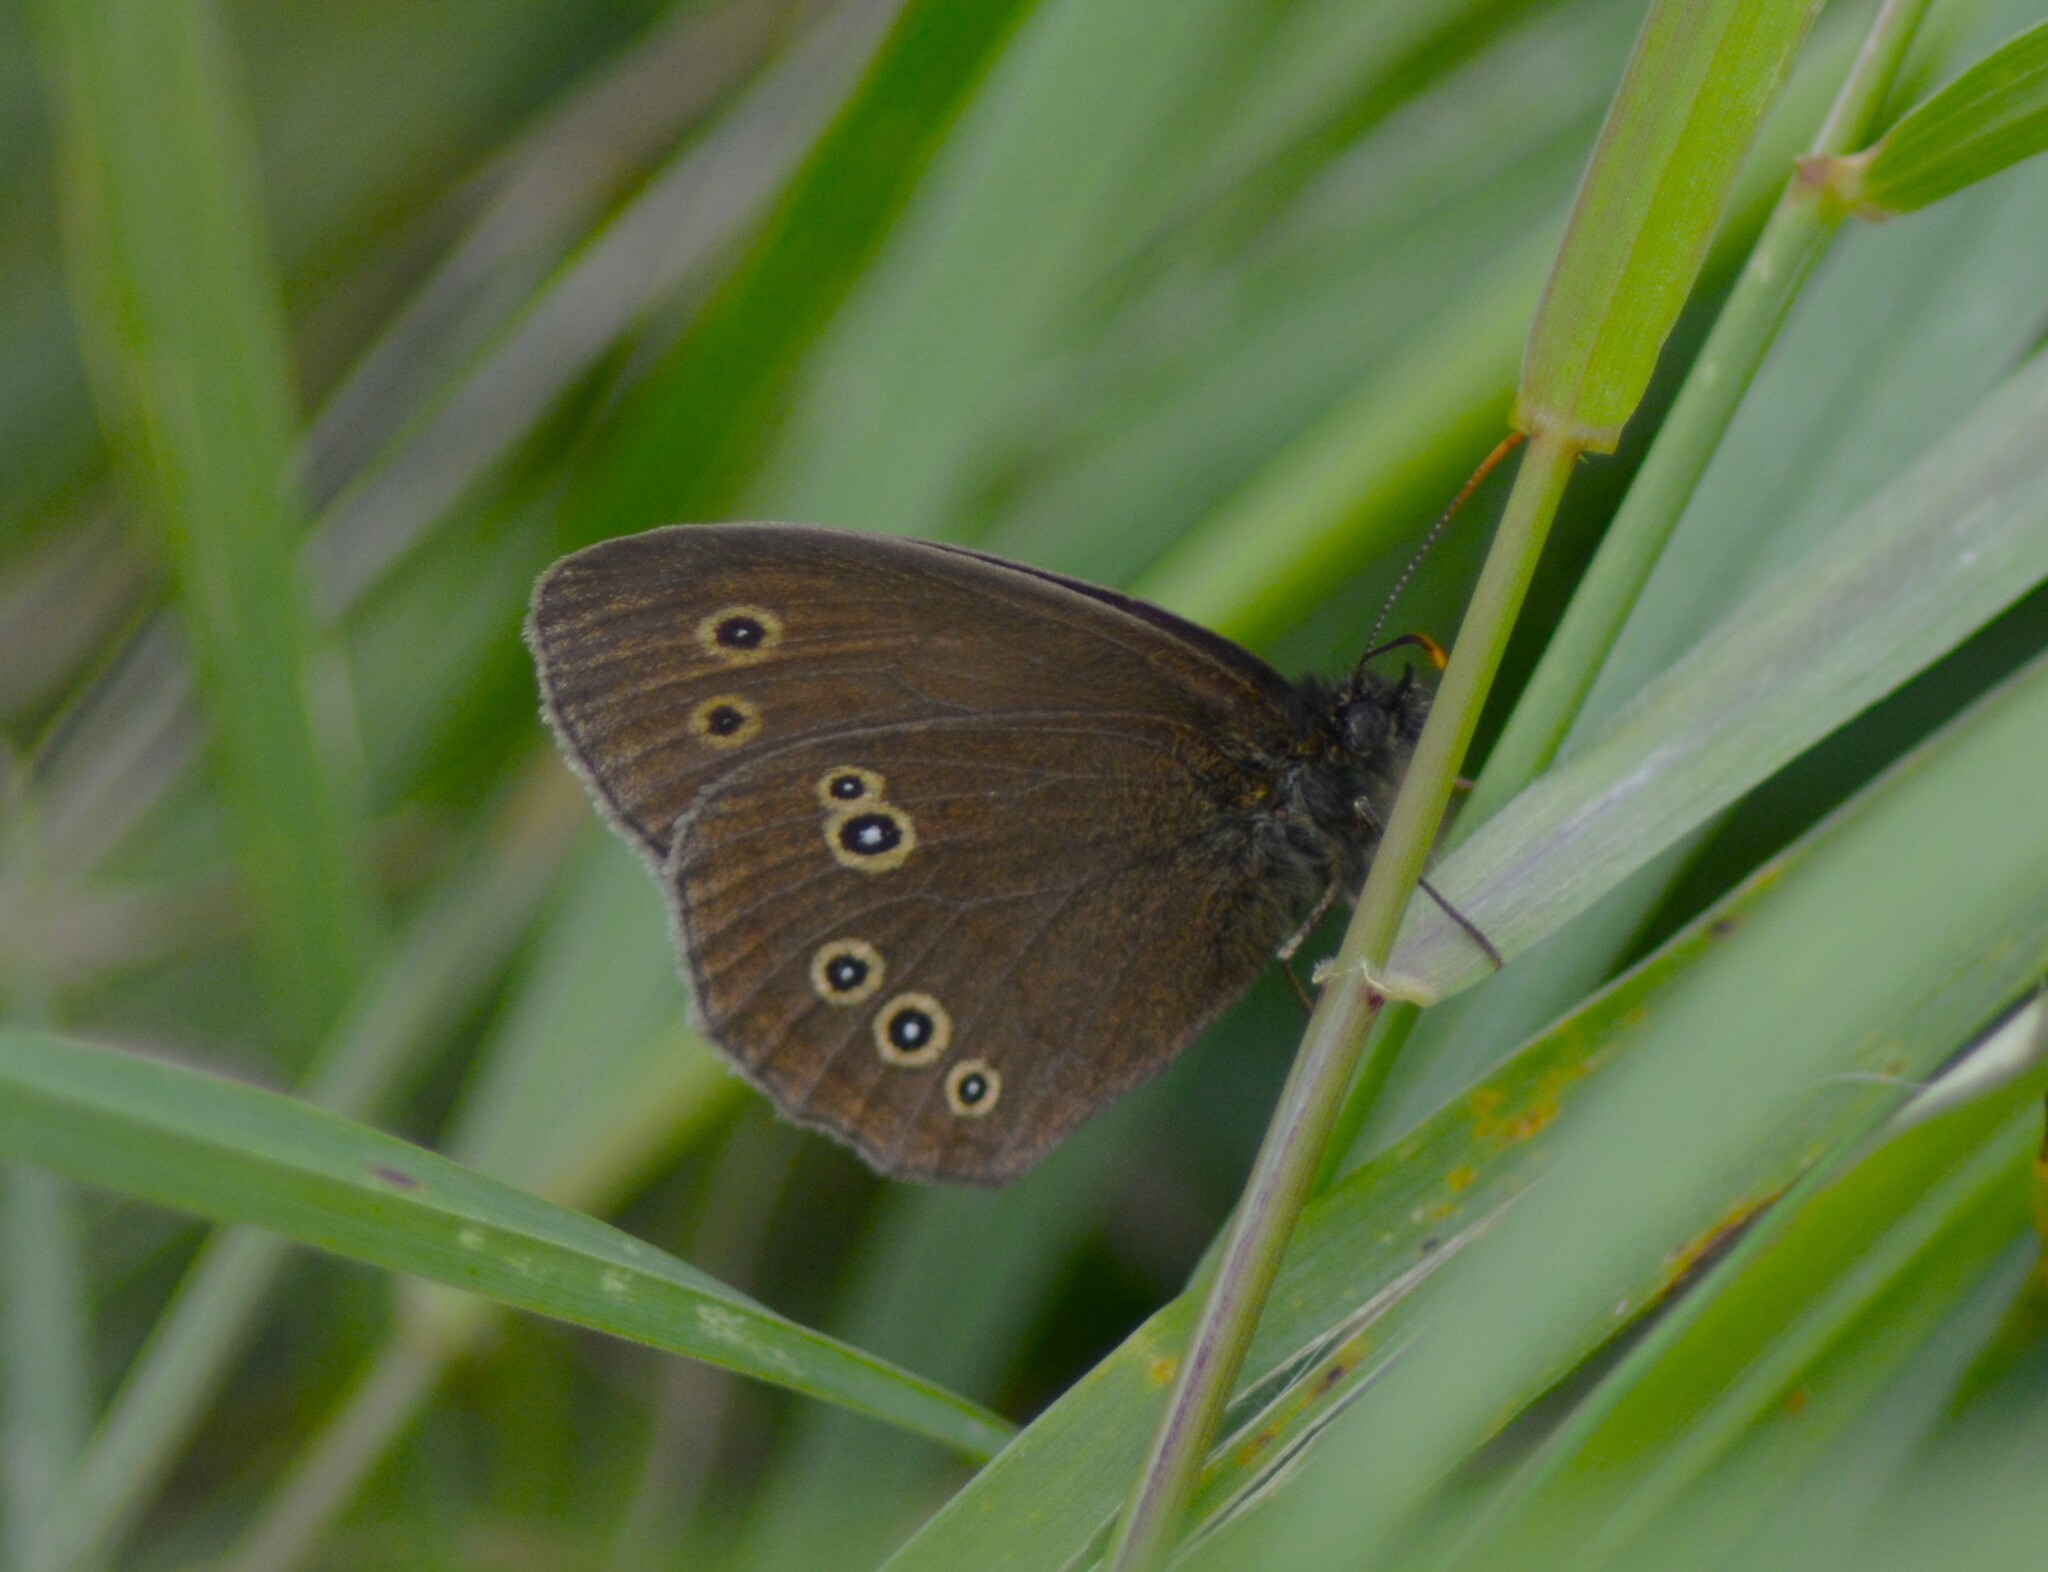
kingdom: Animalia
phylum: Arthropoda
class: Insecta
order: Lepidoptera
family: Nymphalidae
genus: Aphantopus
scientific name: Aphantopus hyperantus
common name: Ringlet
